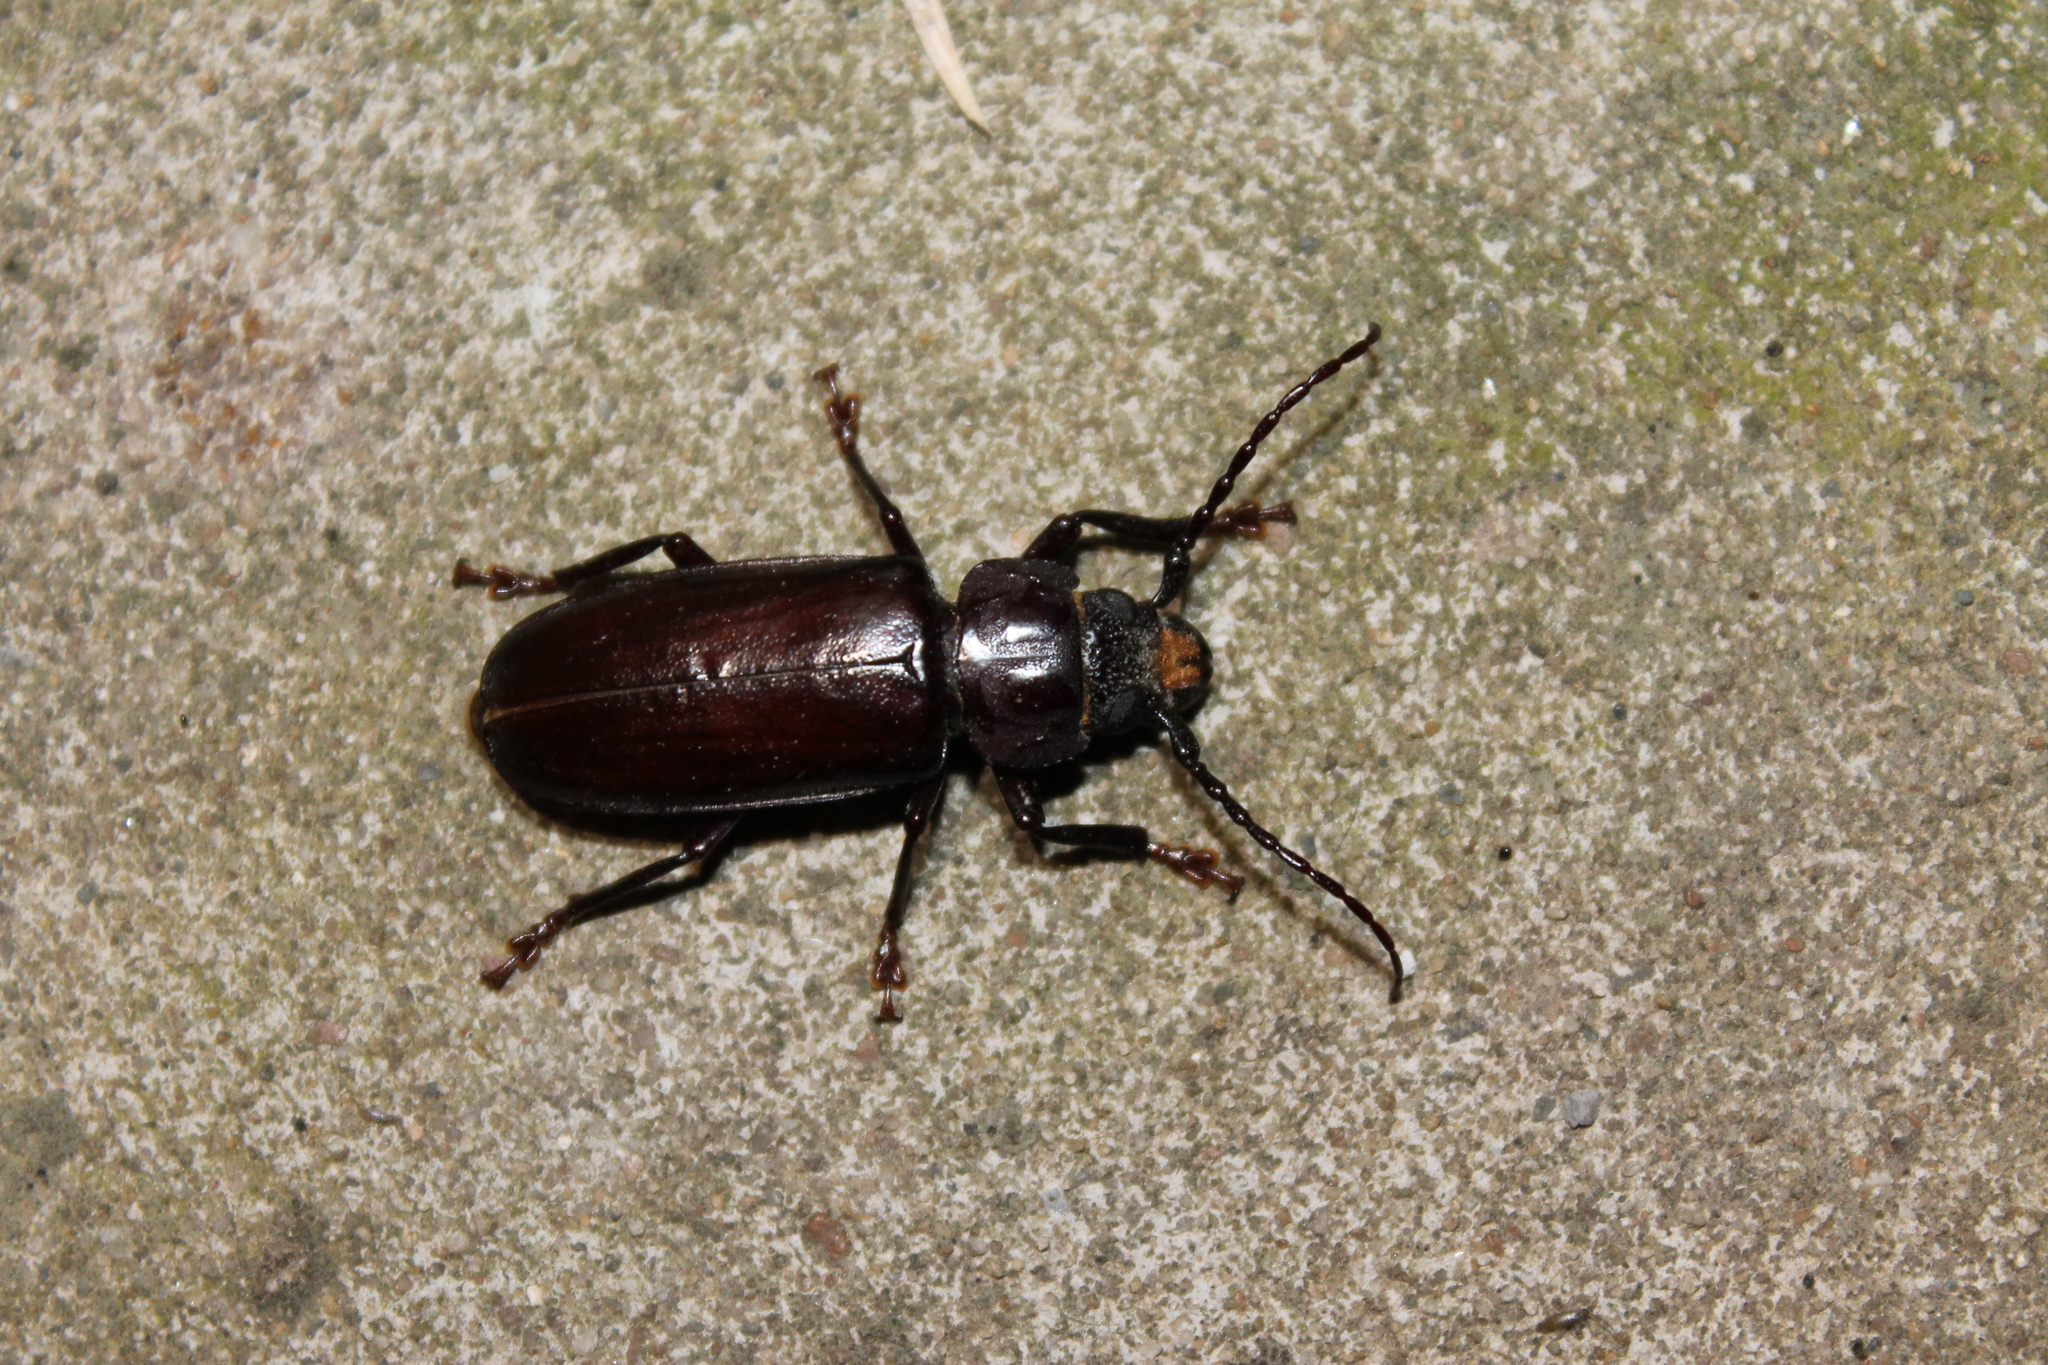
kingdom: Animalia
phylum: Arthropoda
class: Insecta
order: Coleoptera
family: Cerambycidae
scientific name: Cerambycidae
